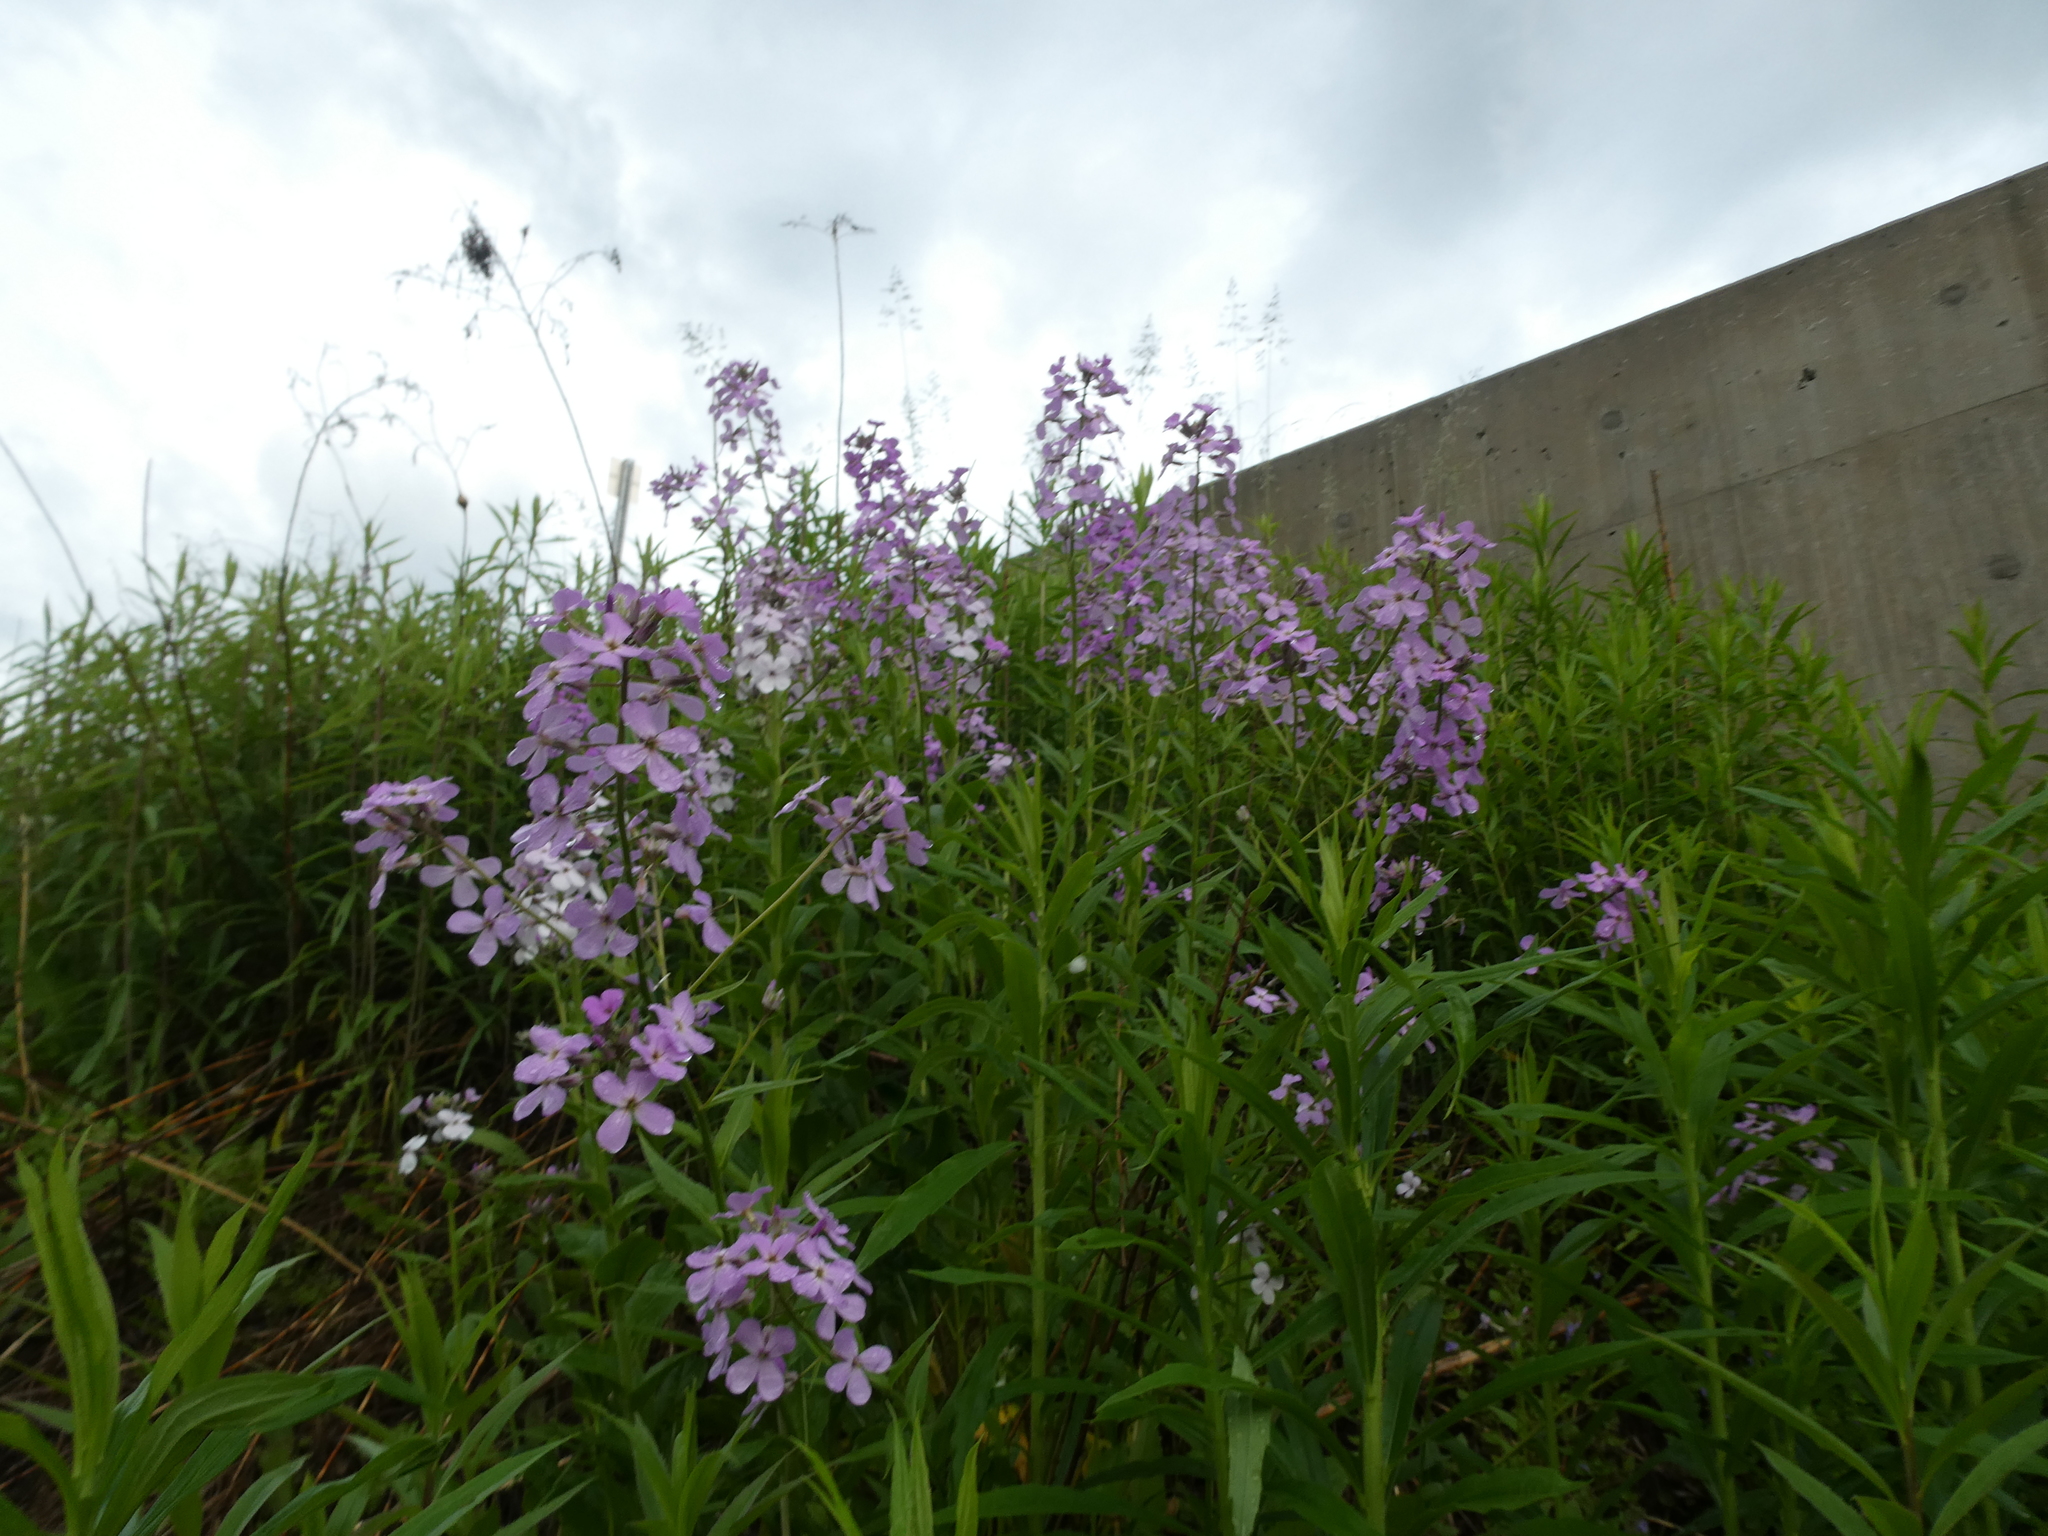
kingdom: Plantae
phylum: Tracheophyta
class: Magnoliopsida
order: Brassicales
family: Brassicaceae
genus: Hesperis
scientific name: Hesperis matronalis
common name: Dame's-violet
